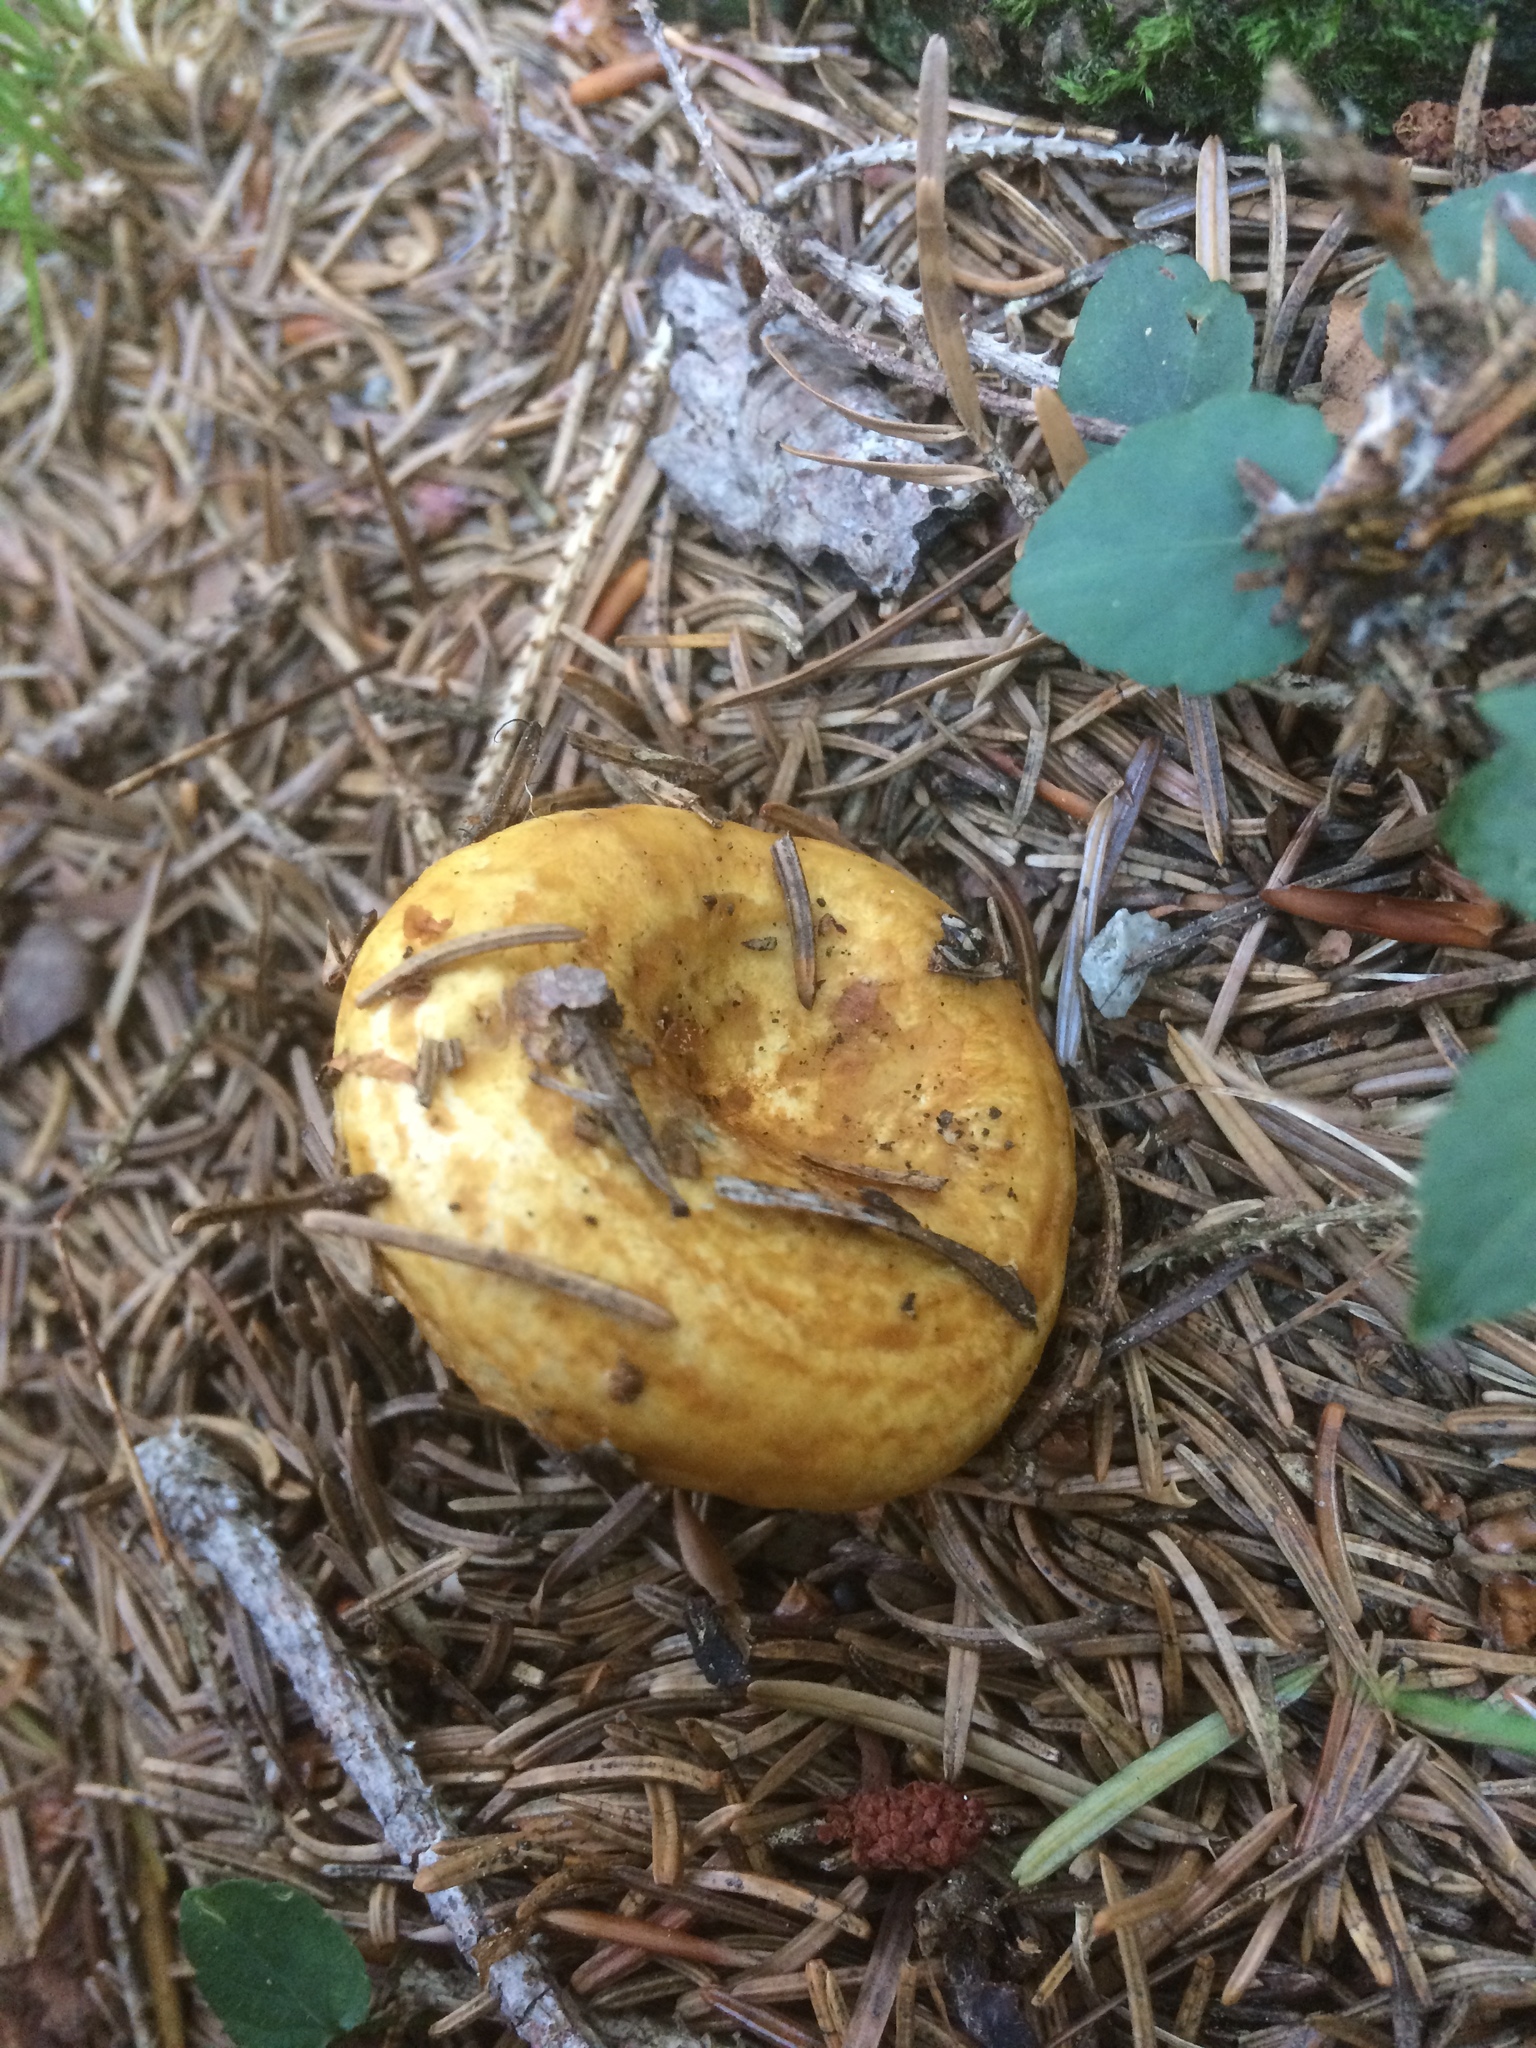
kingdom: Fungi
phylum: Basidiomycota
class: Agaricomycetes
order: Russulales
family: Russulaceae
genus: Lactarius
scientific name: Lactarius scrobiculatus
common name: Spotted milkcap
